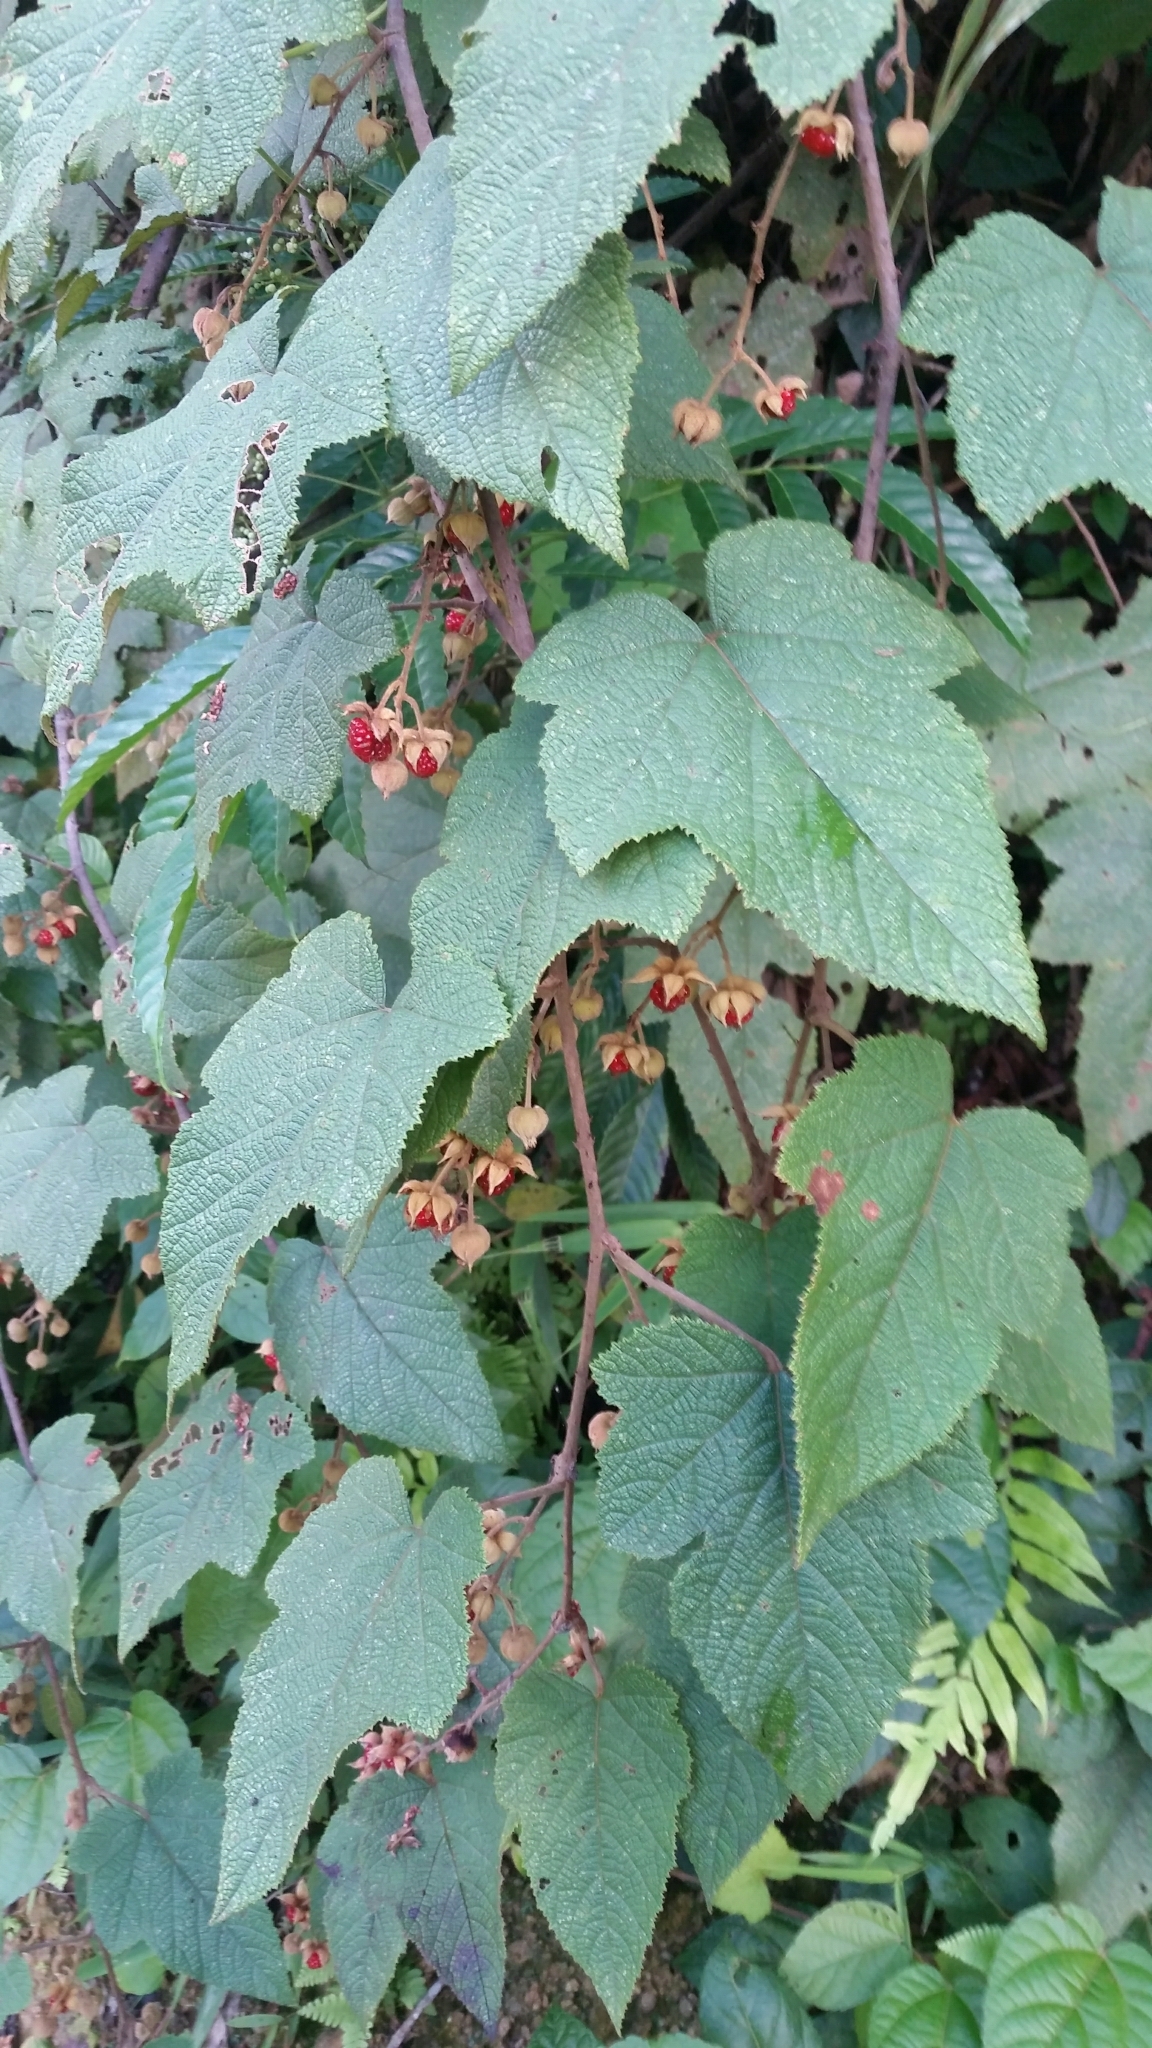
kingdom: Plantae
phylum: Tracheophyta
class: Magnoliopsida
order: Rosales
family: Rosaceae
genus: Rubus
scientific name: Rubus rugosus
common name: Himalayan blackberry
